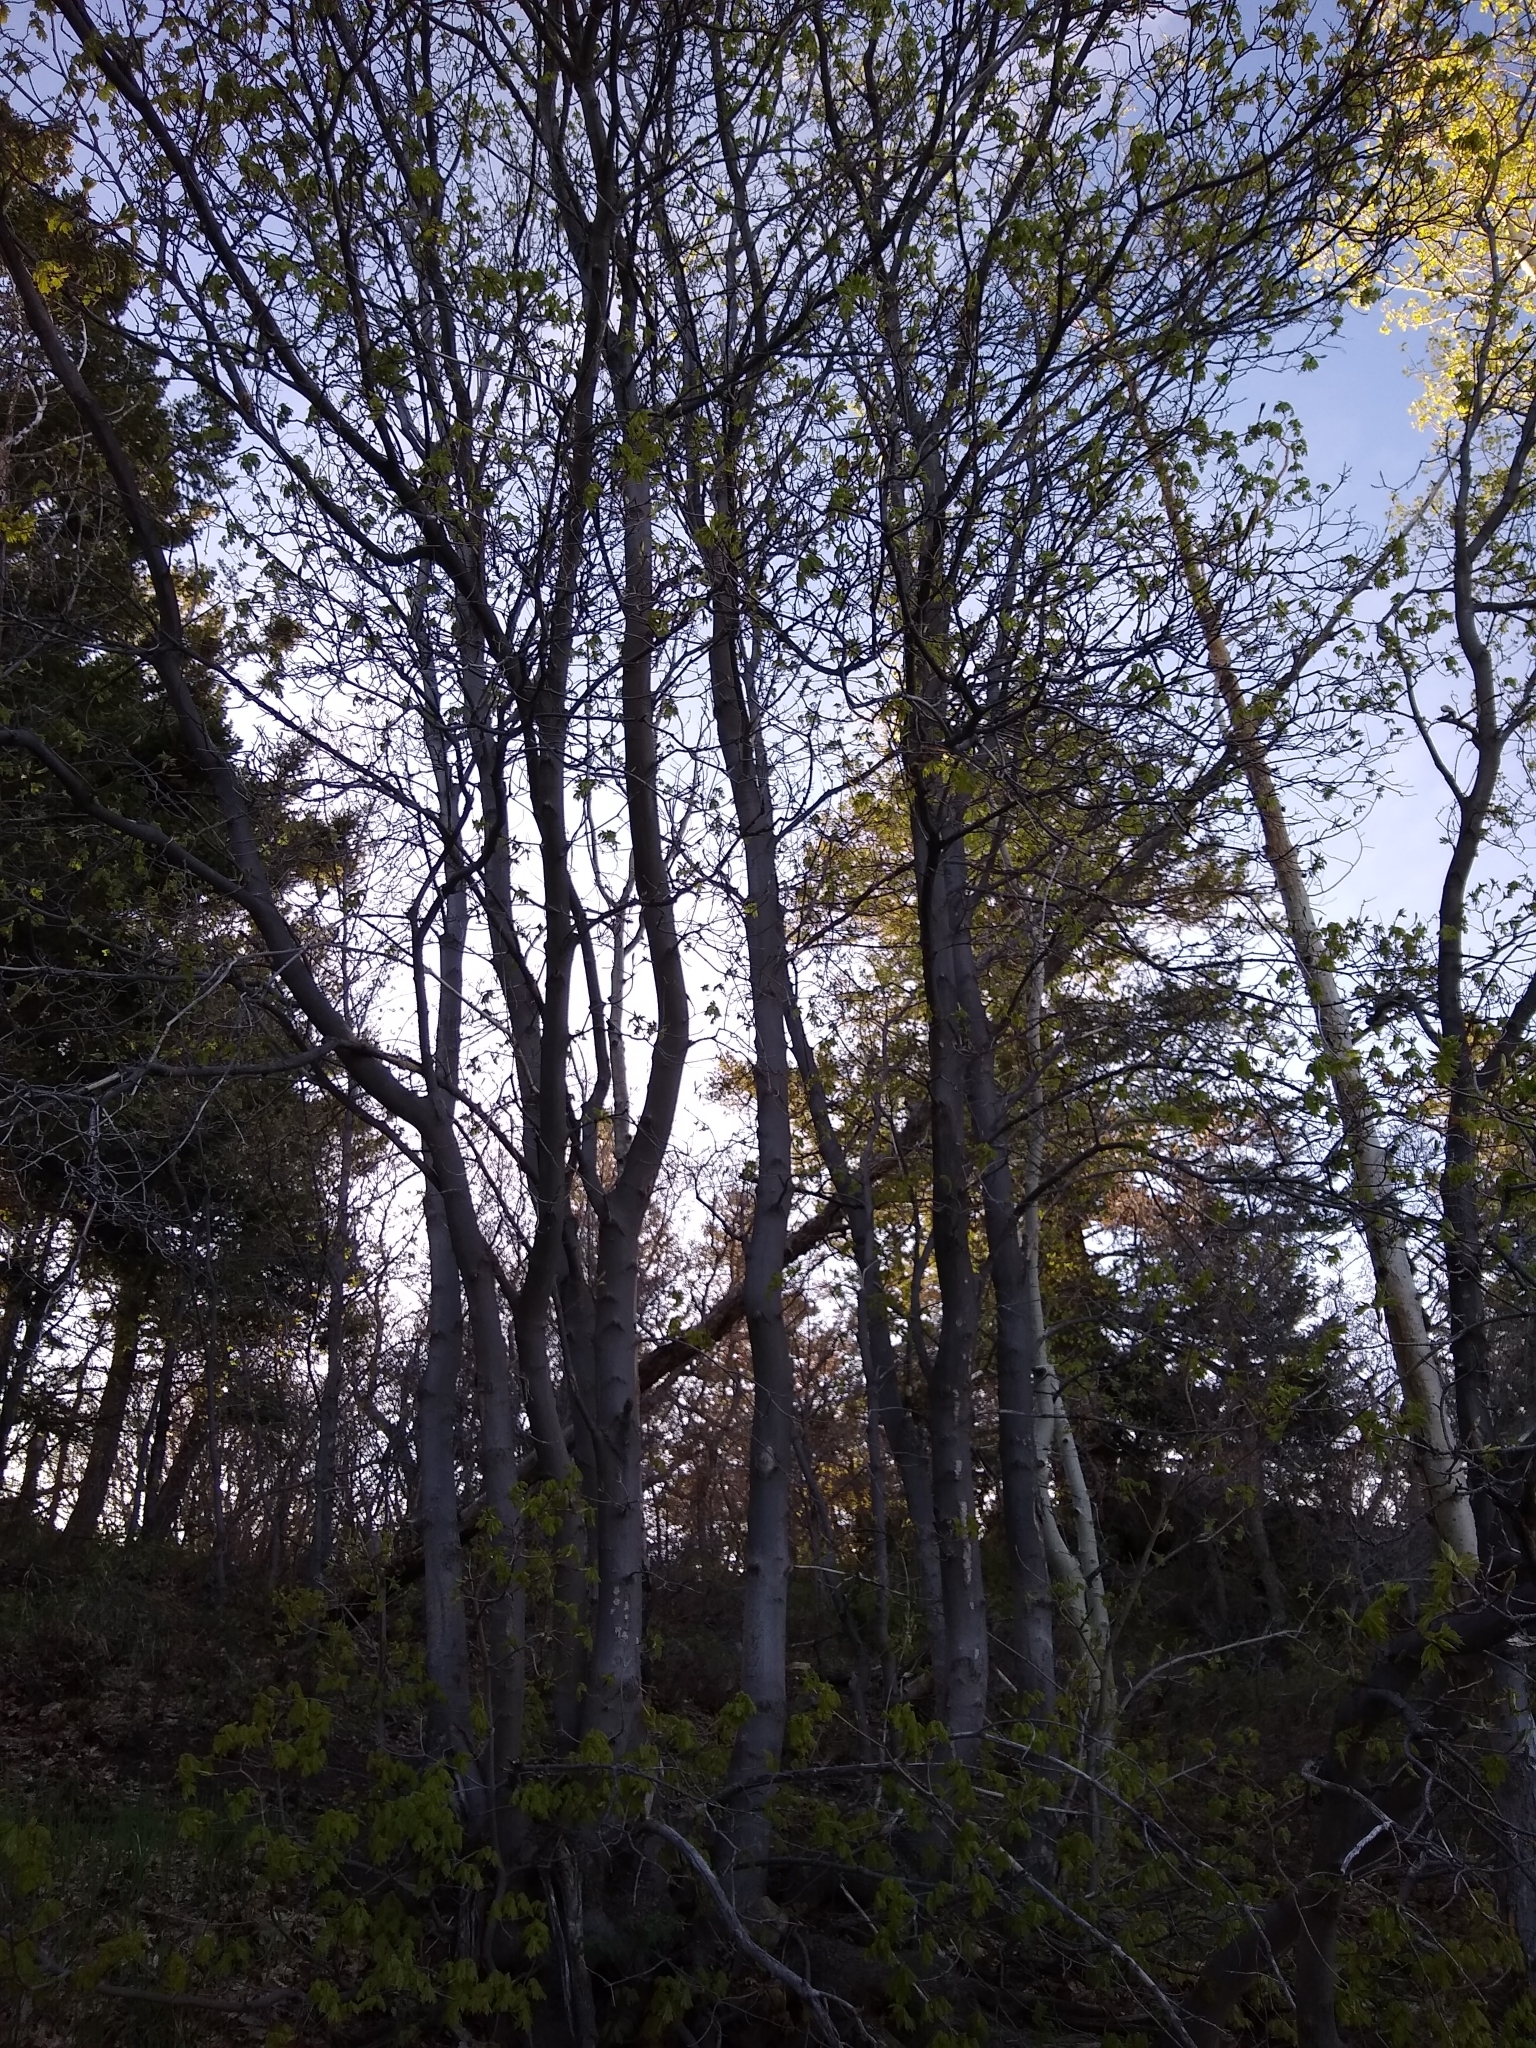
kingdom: Plantae
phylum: Tracheophyta
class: Magnoliopsida
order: Sapindales
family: Sapindaceae
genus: Acer
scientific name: Acer grandidentatum
